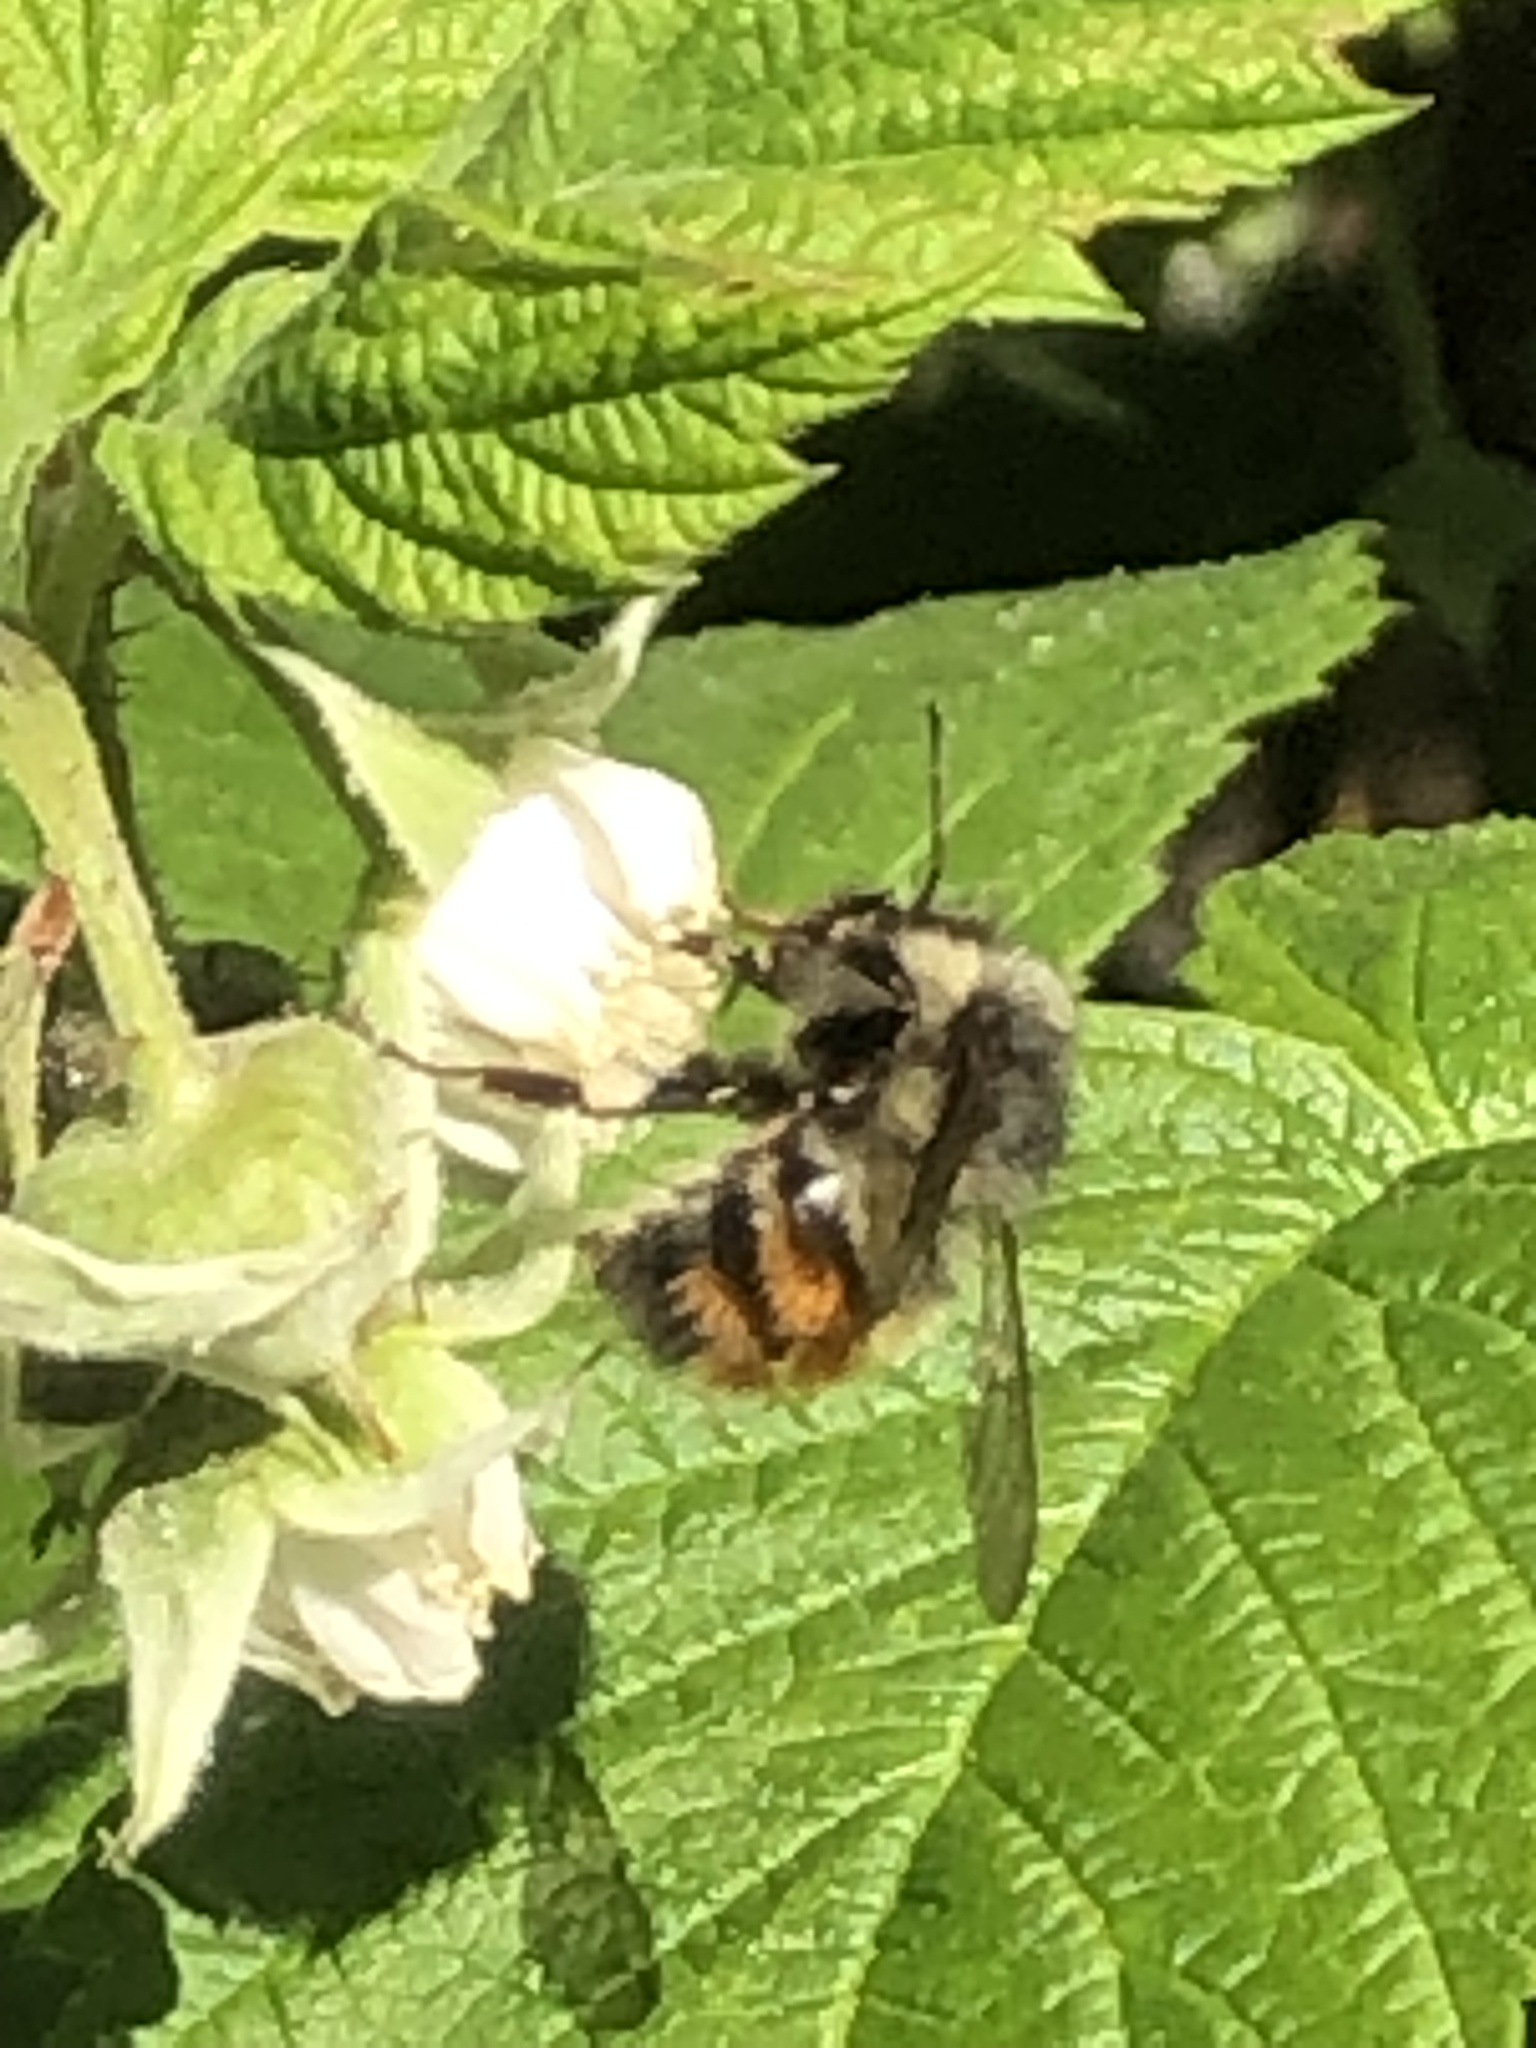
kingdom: Animalia
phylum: Arthropoda
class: Insecta
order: Hymenoptera
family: Apidae
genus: Bombus
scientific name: Bombus flavifrons
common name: Yellow head bumble bee
